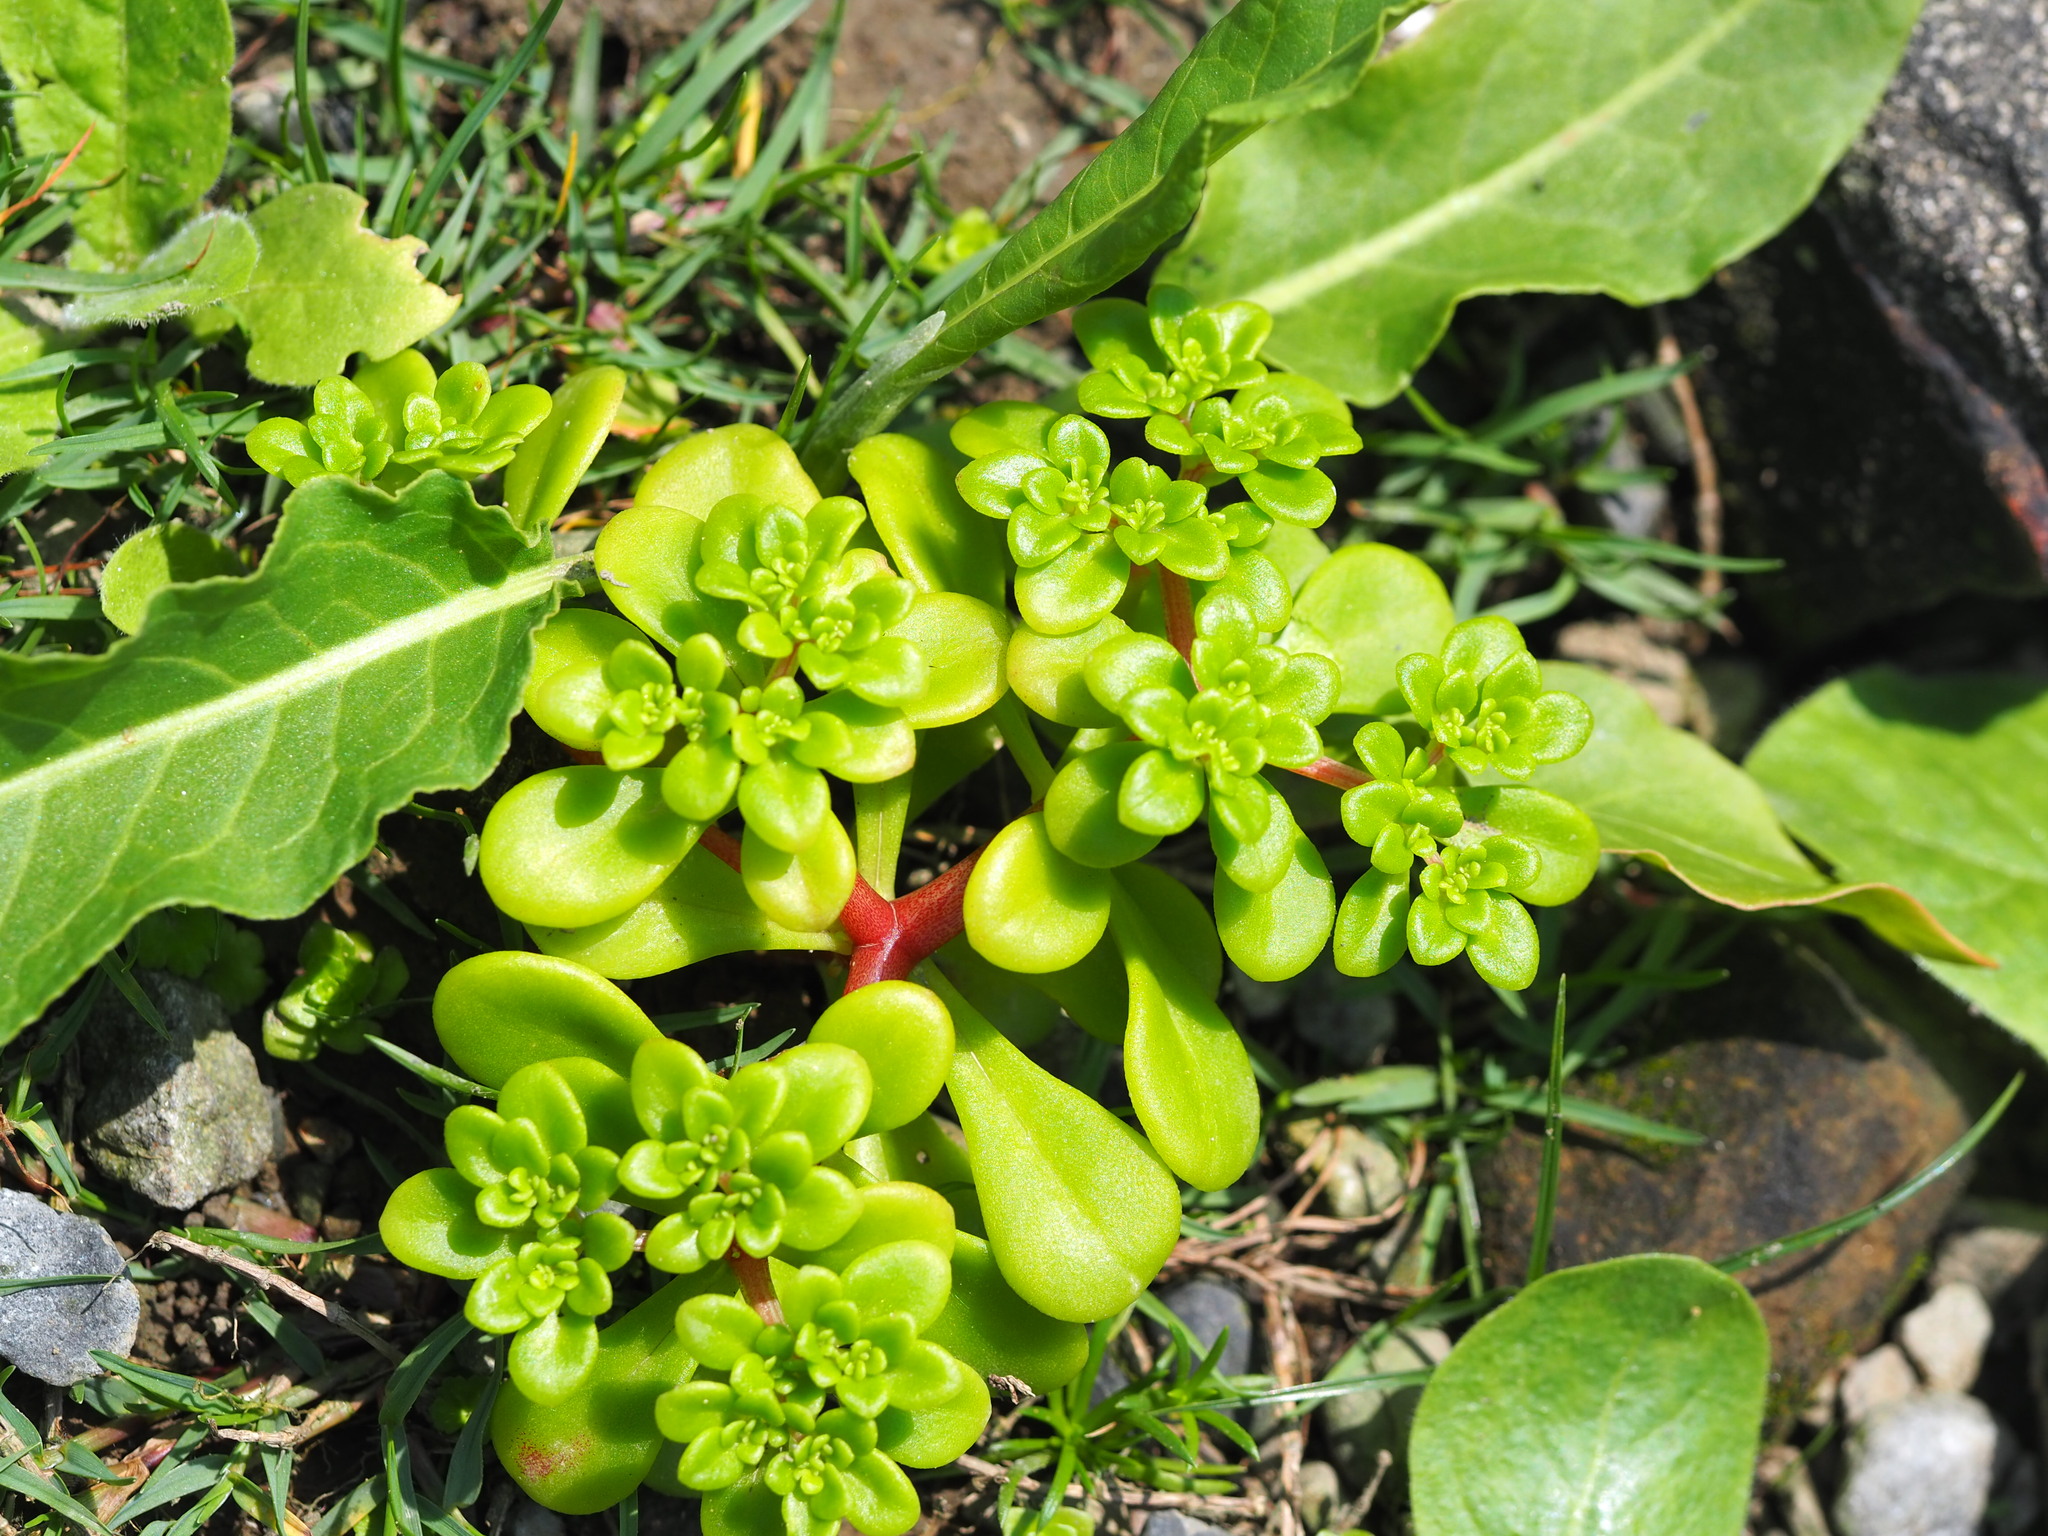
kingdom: Plantae
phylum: Tracheophyta
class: Magnoliopsida
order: Saxifragales
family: Crassulaceae
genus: Sedum
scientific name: Sedum formosanum
